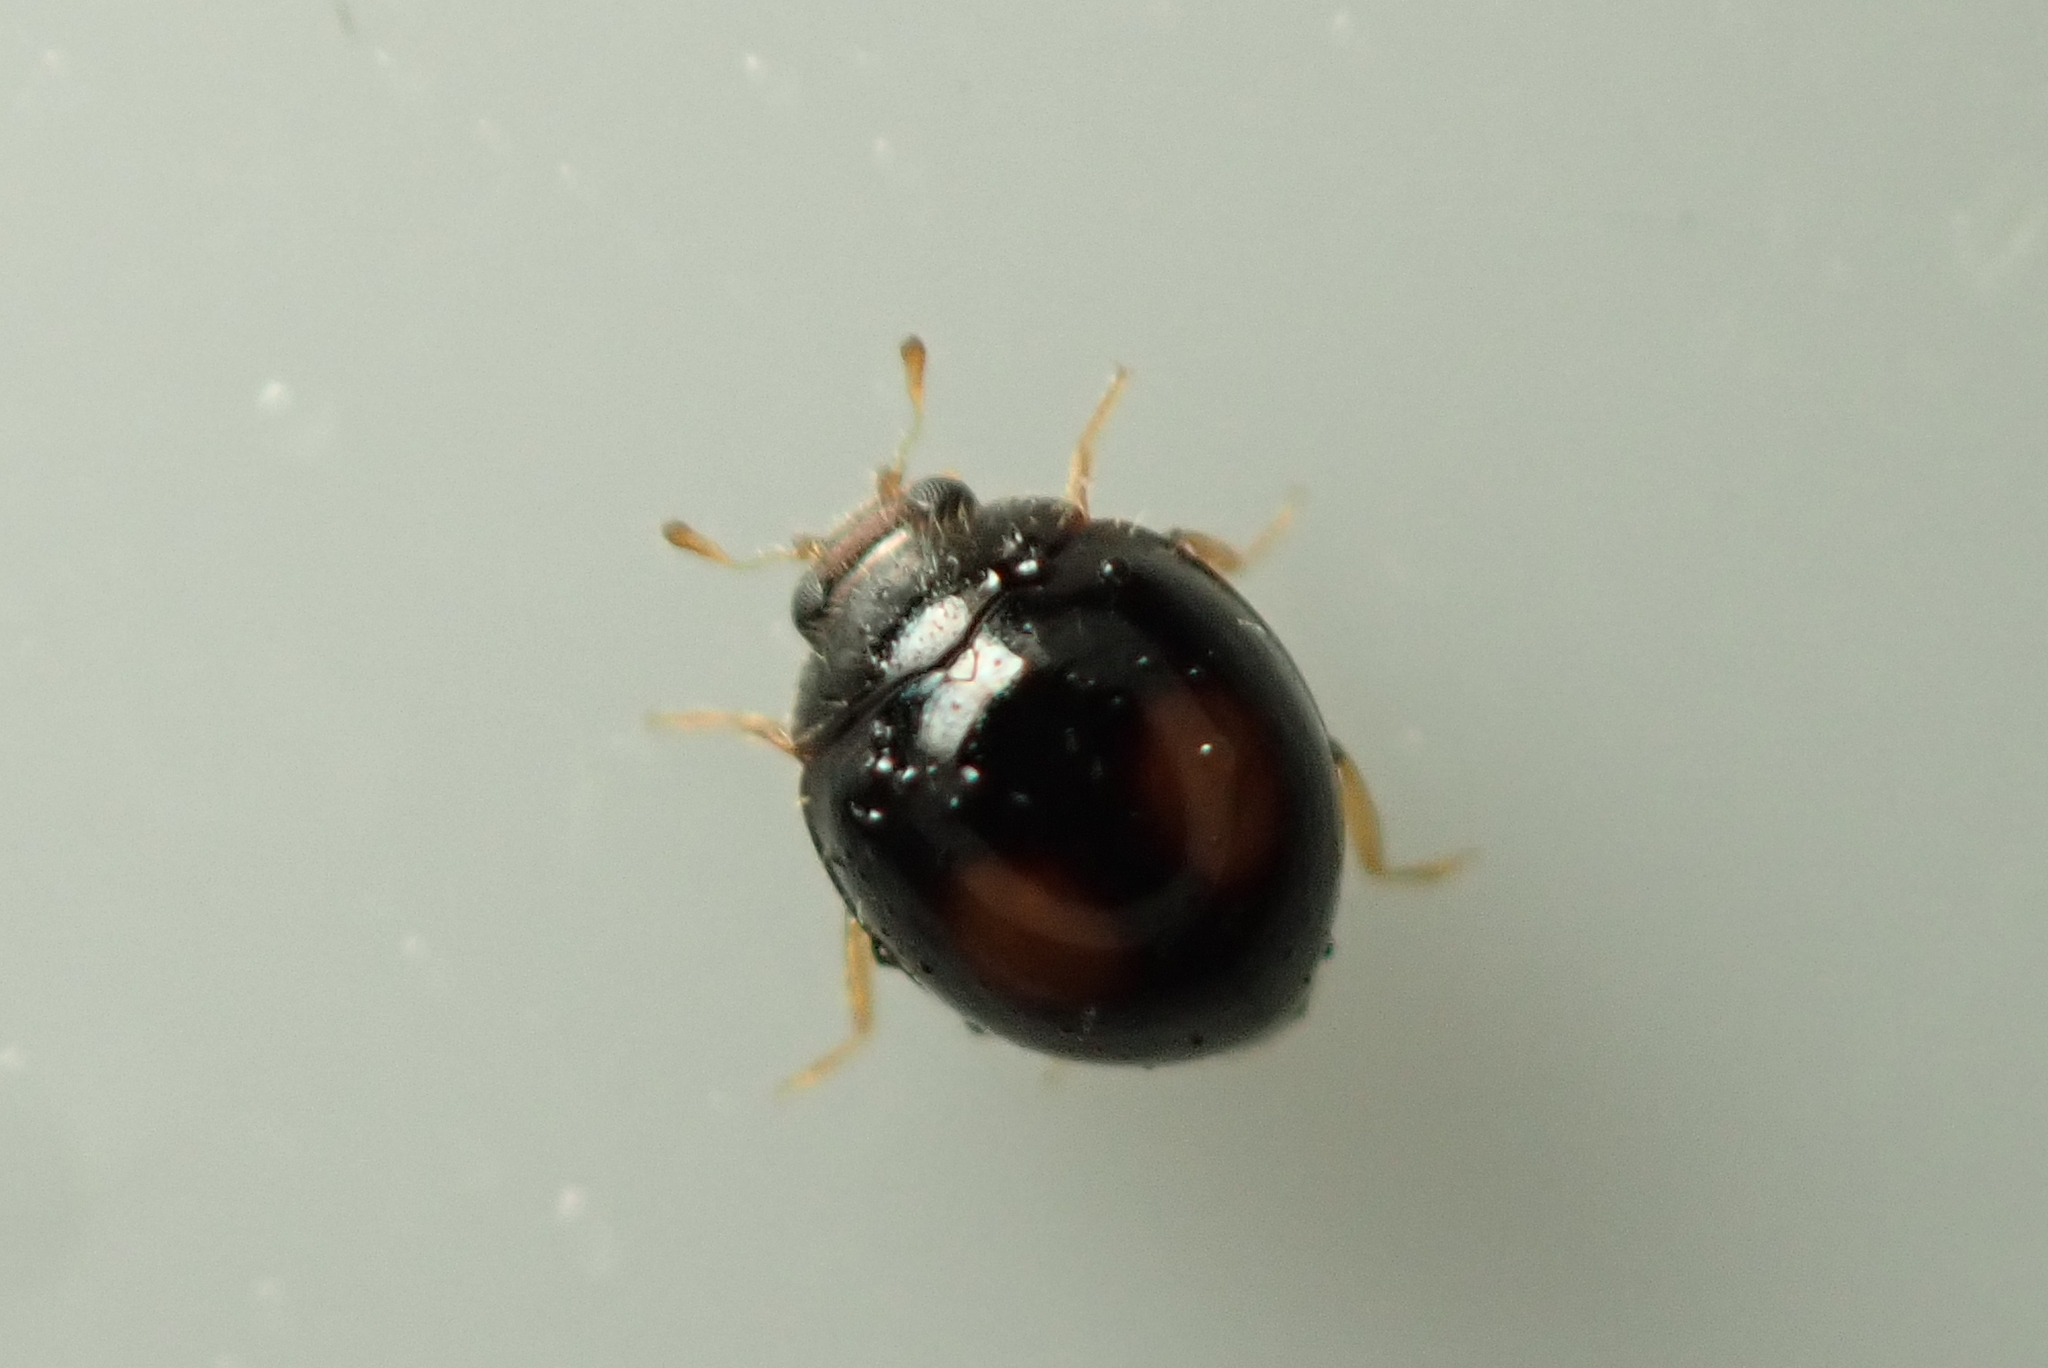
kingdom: Animalia
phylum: Arthropoda
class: Insecta
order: Coleoptera
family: Coccinellidae
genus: Serangium
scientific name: Serangium maculigerum
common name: Lady beetle
